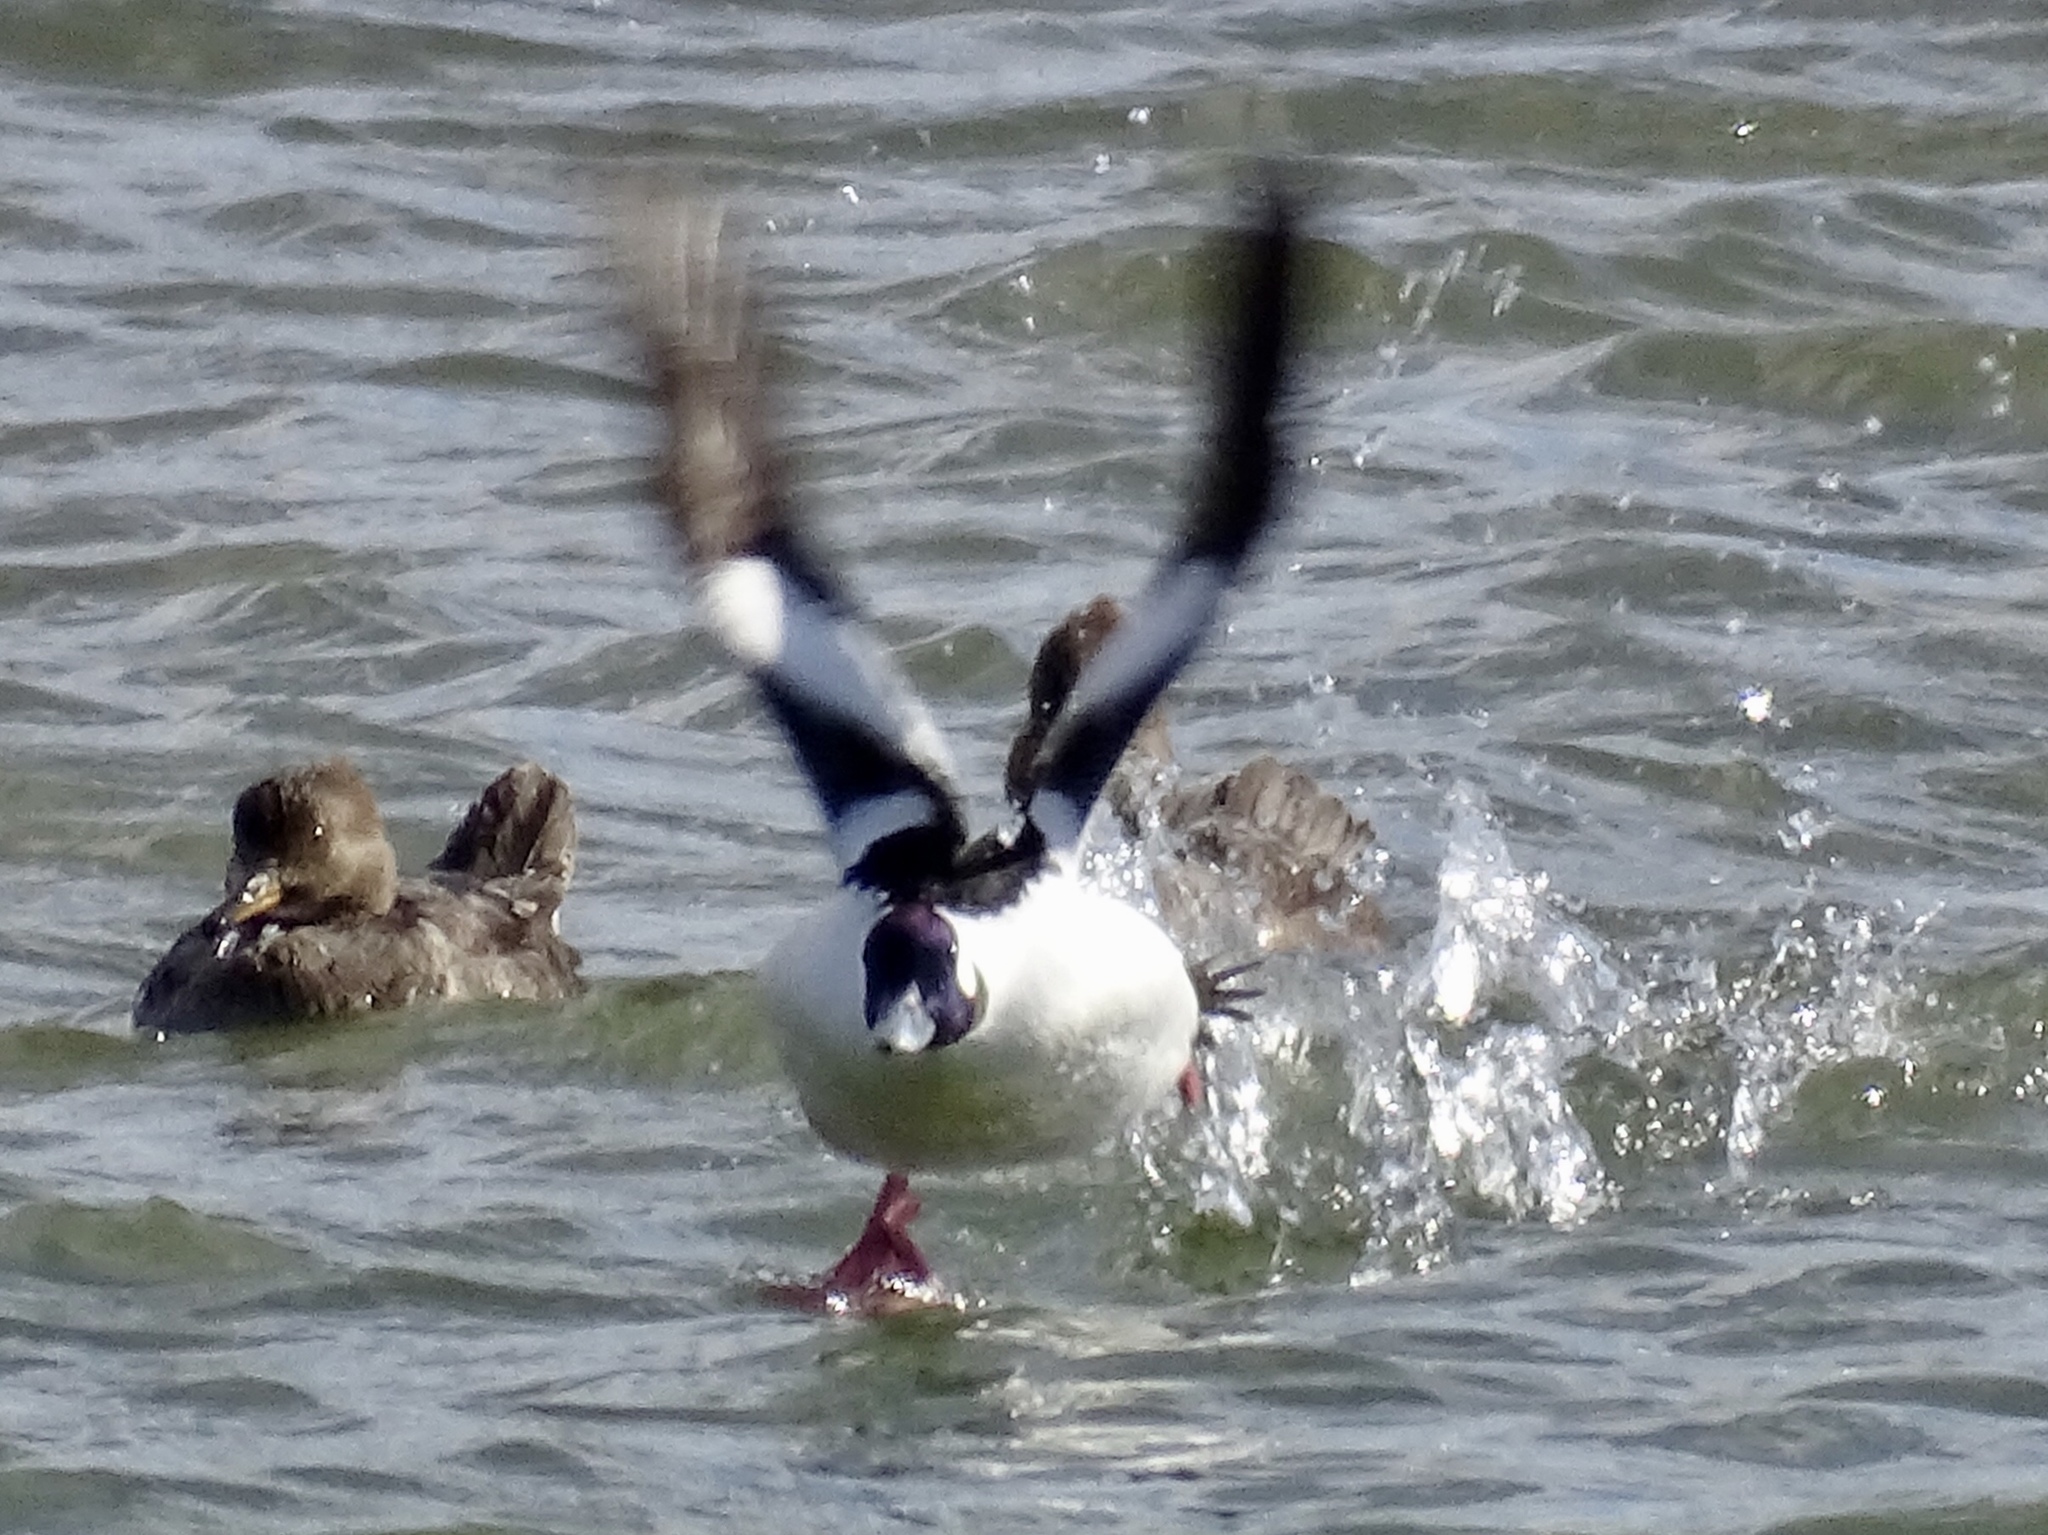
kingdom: Animalia
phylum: Chordata
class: Aves
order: Anseriformes
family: Anatidae
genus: Bucephala
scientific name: Bucephala albeola
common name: Bufflehead
